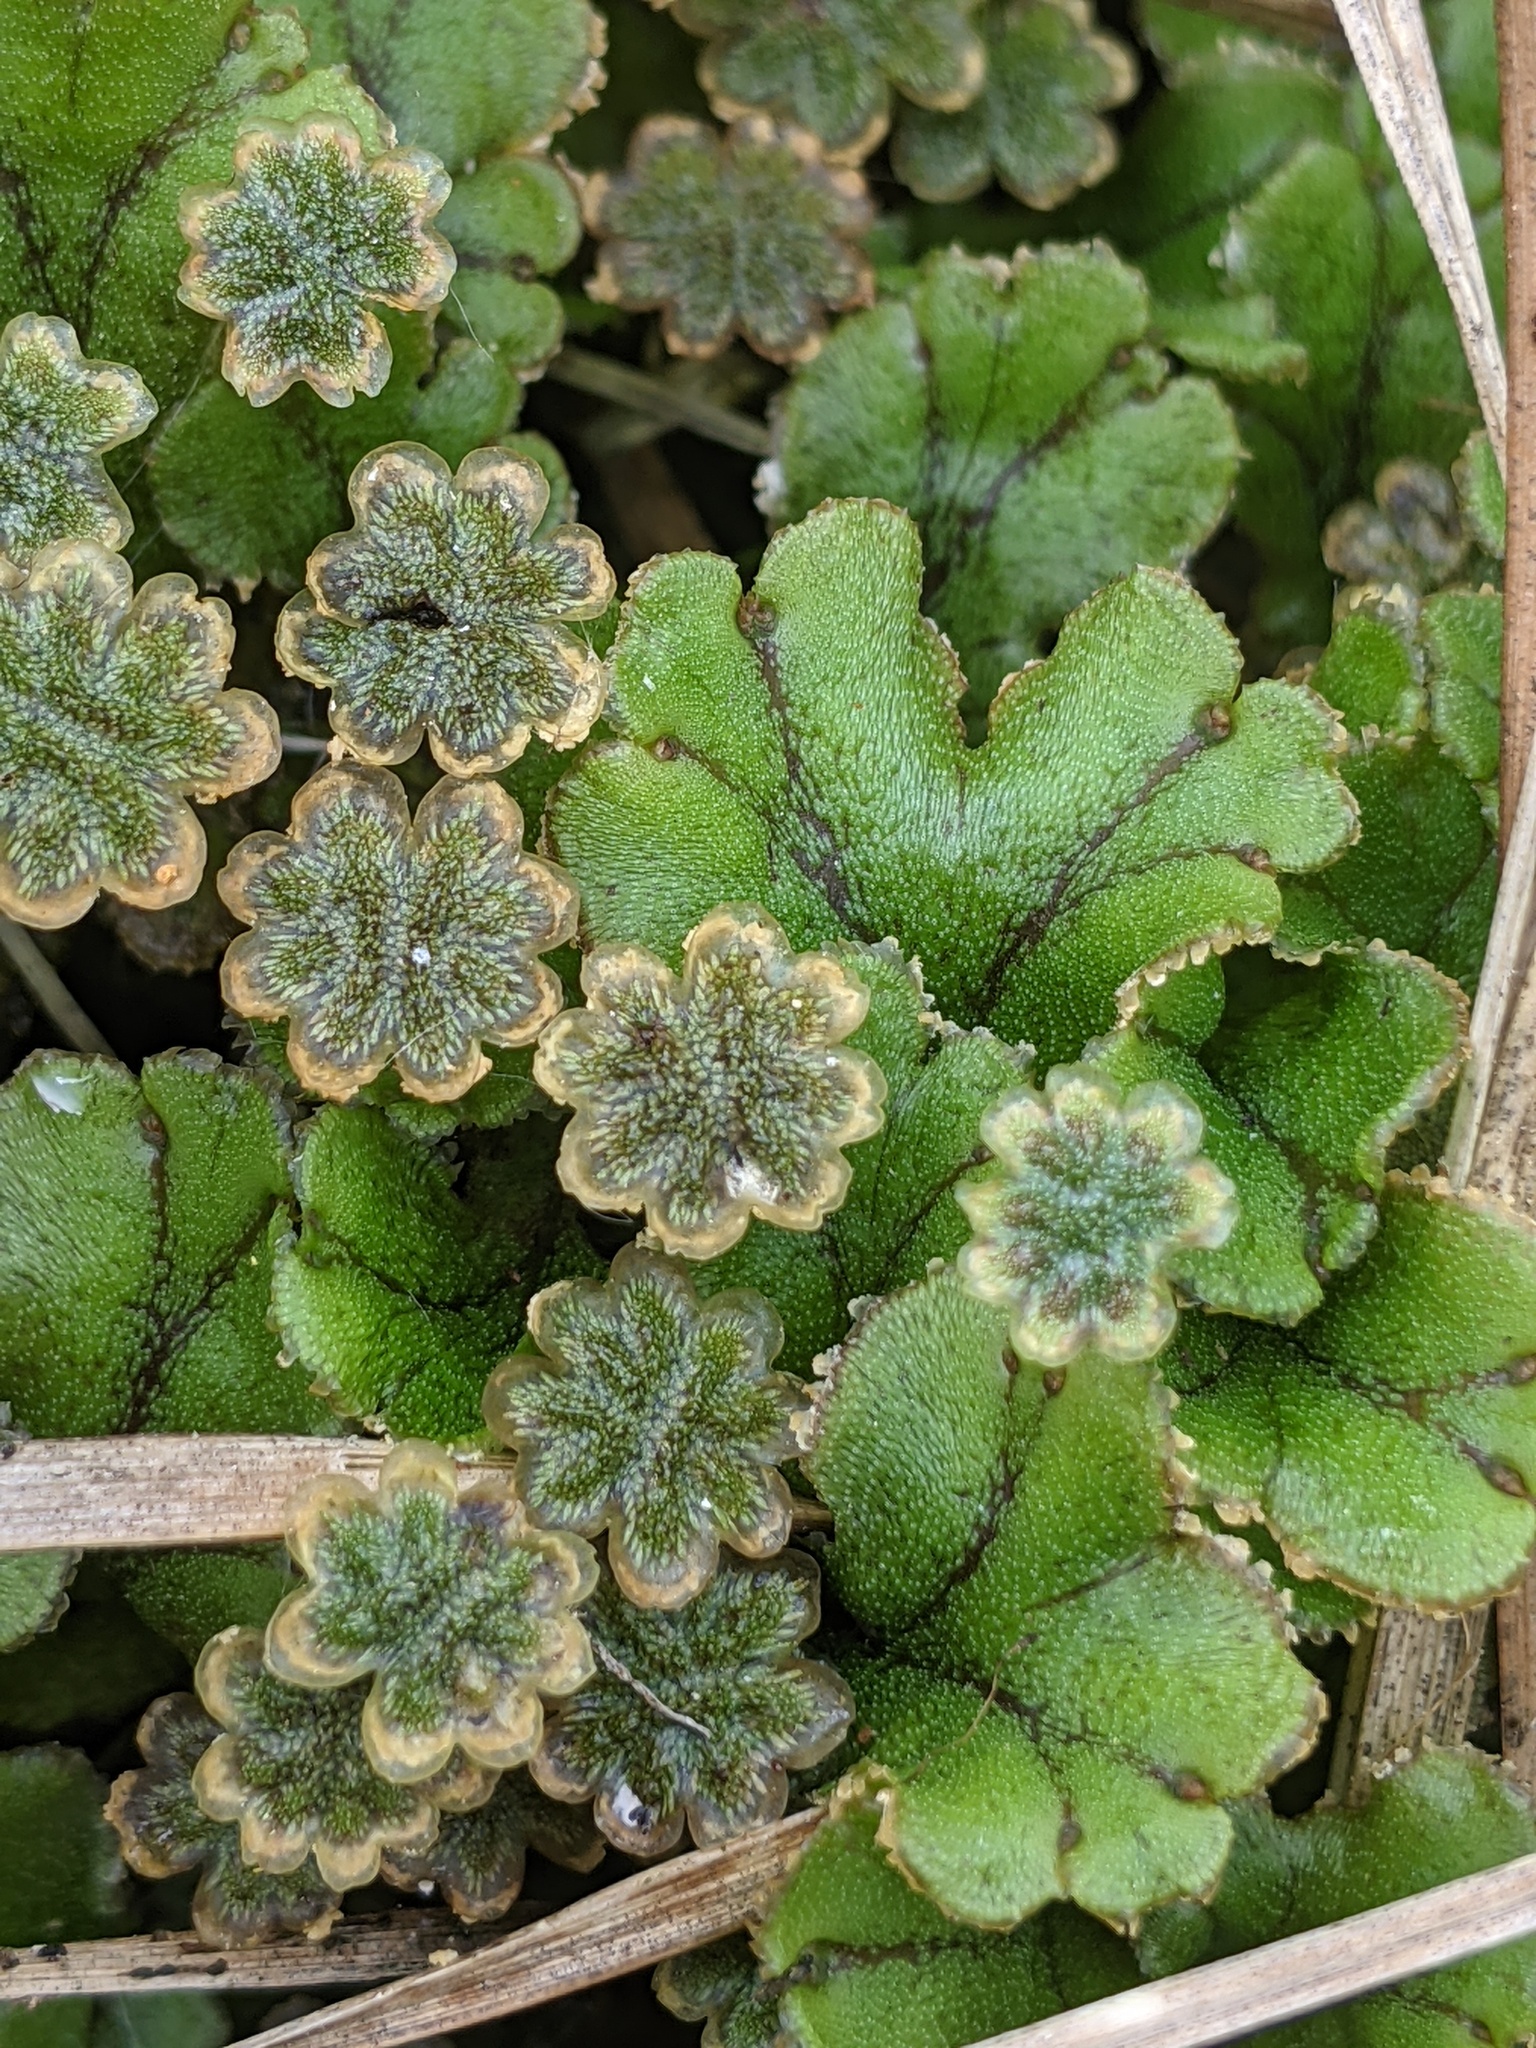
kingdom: Plantae
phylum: Marchantiophyta
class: Marchantiopsida
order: Marchantiales
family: Marchantiaceae
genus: Marchantia
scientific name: Marchantia polymorpha
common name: Common liverwort
